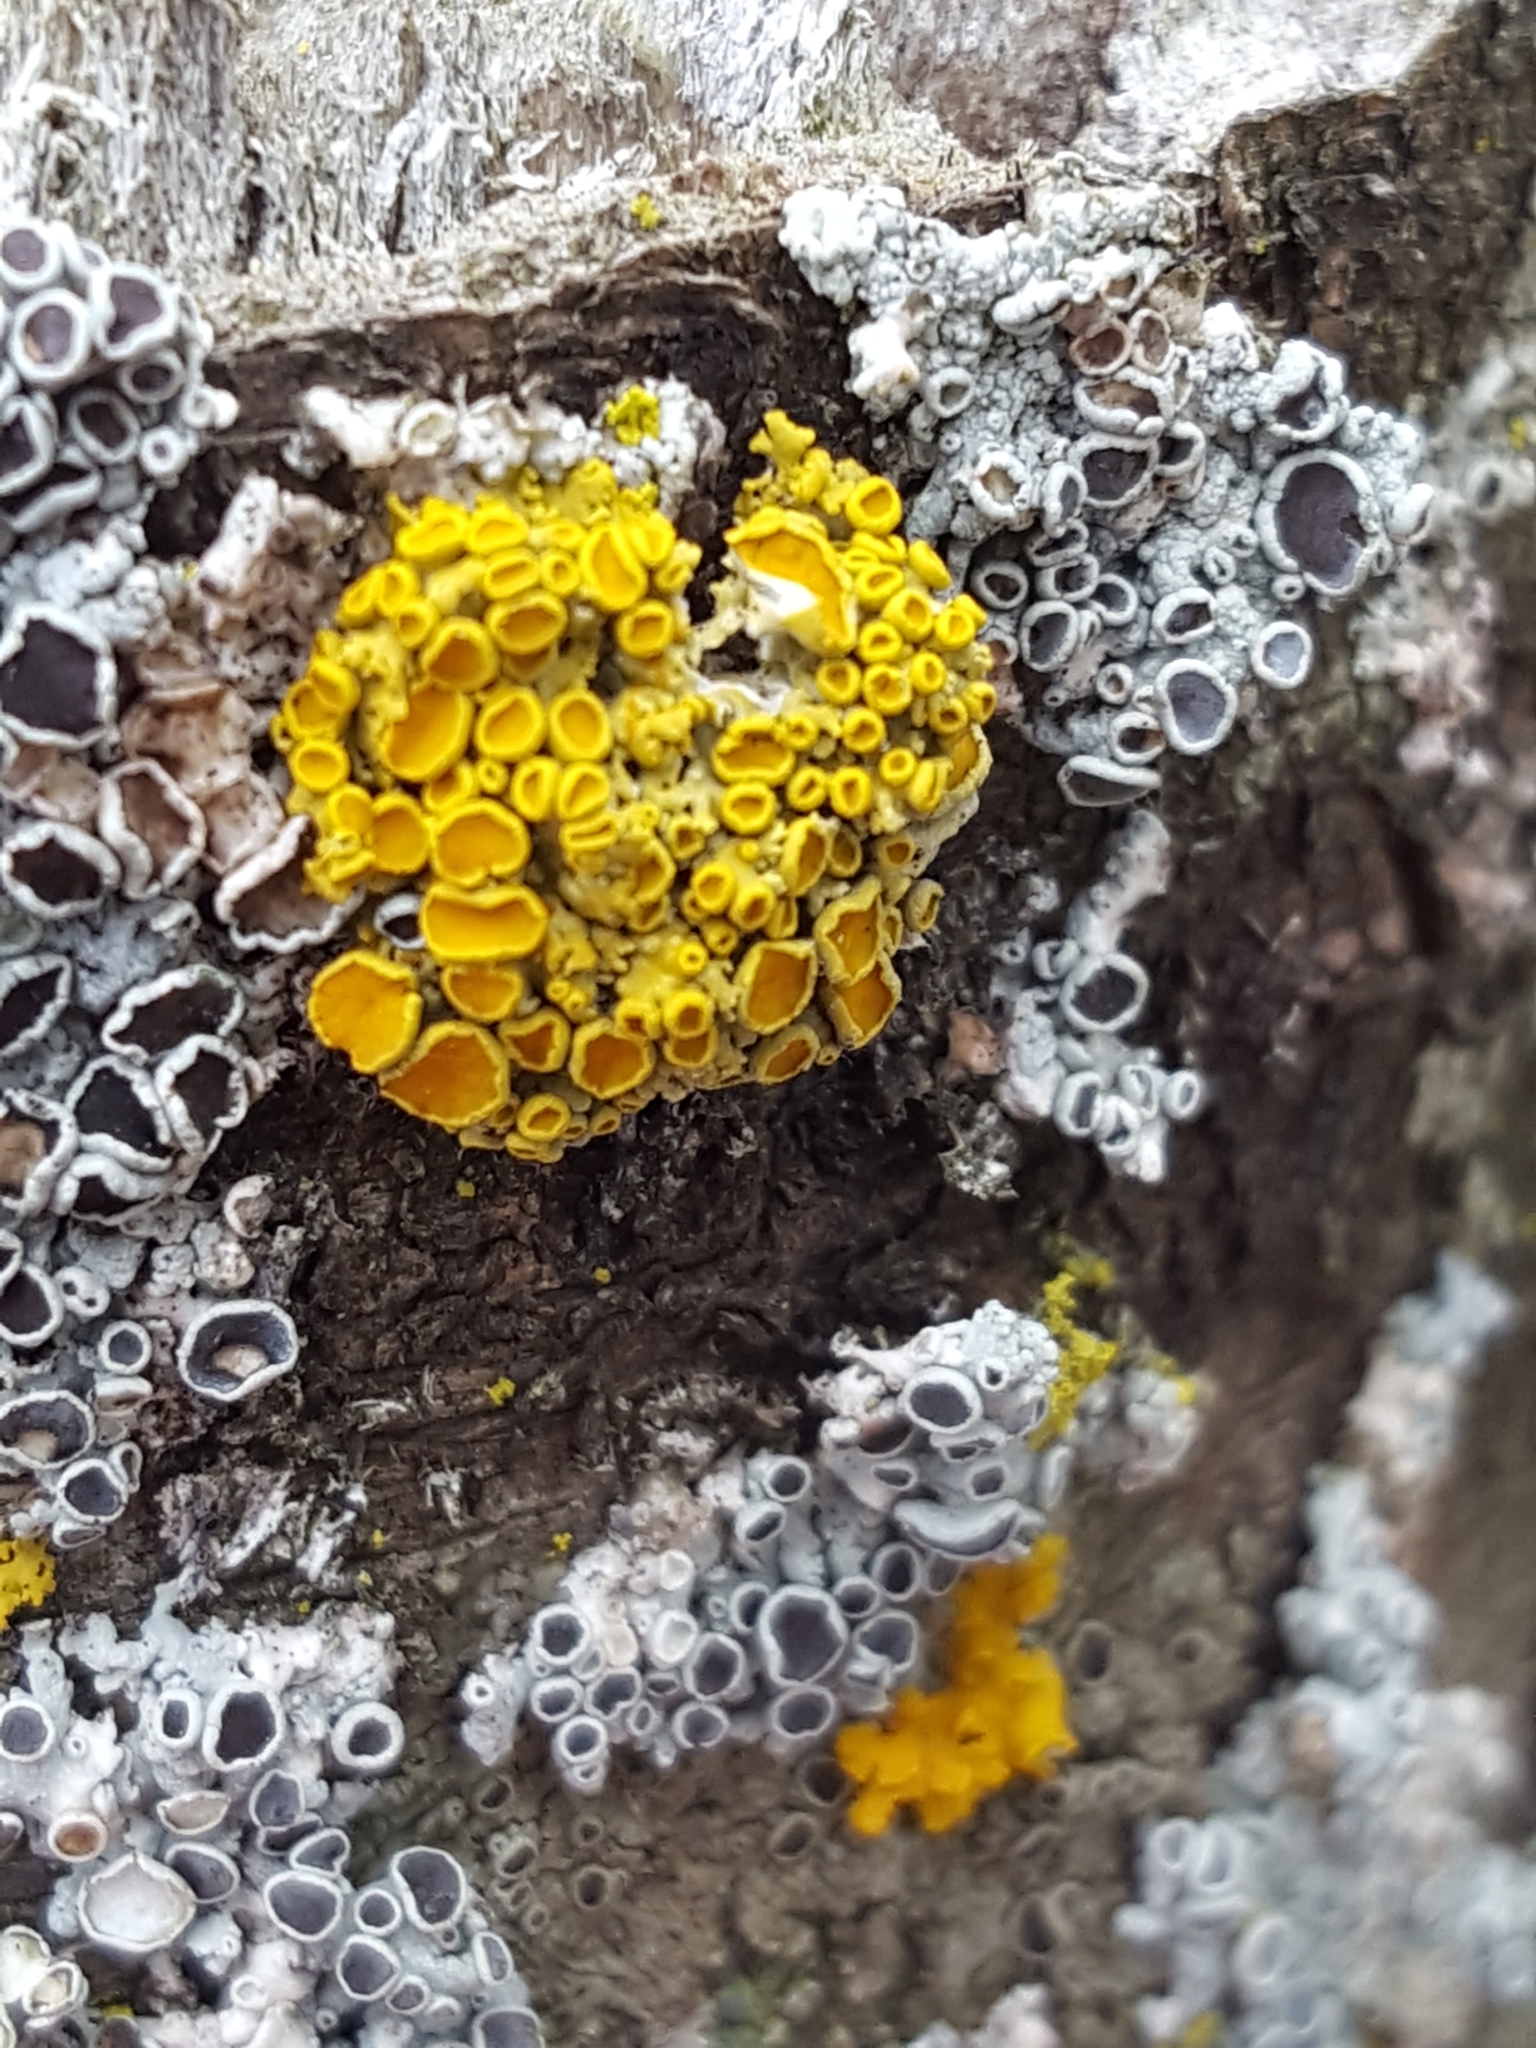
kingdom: Fungi
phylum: Ascomycota
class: Lecanoromycetes
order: Teloschistales
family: Teloschistaceae
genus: Gallowayella
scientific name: Gallowayella hasseana
